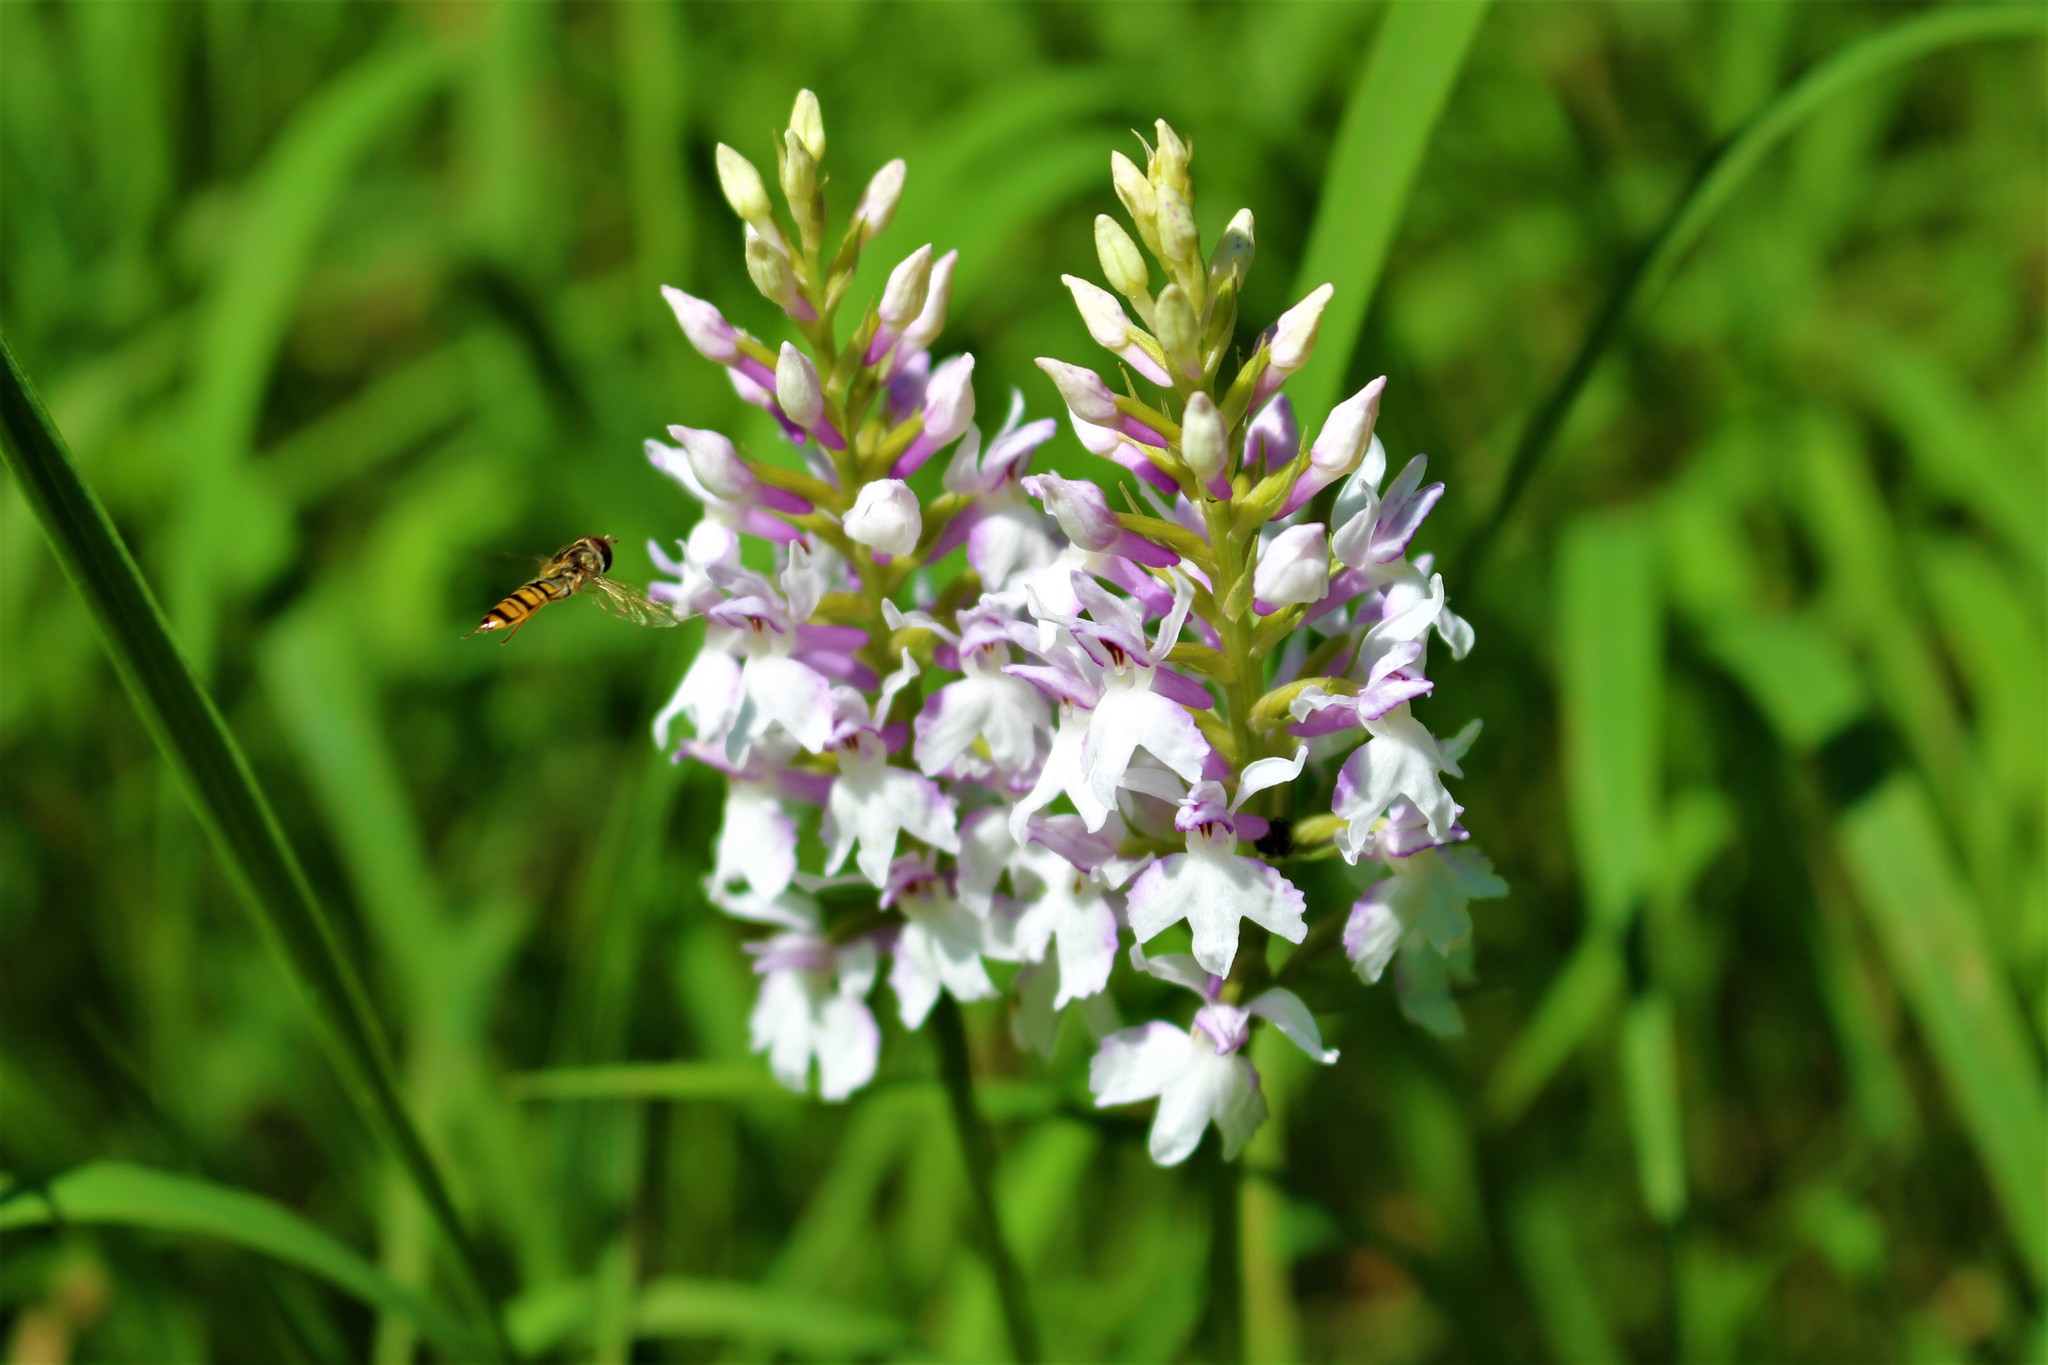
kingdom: Animalia
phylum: Arthropoda
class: Insecta
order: Diptera
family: Syrphidae
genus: Episyrphus
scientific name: Episyrphus balteatus
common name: Marmalade hoverfly
